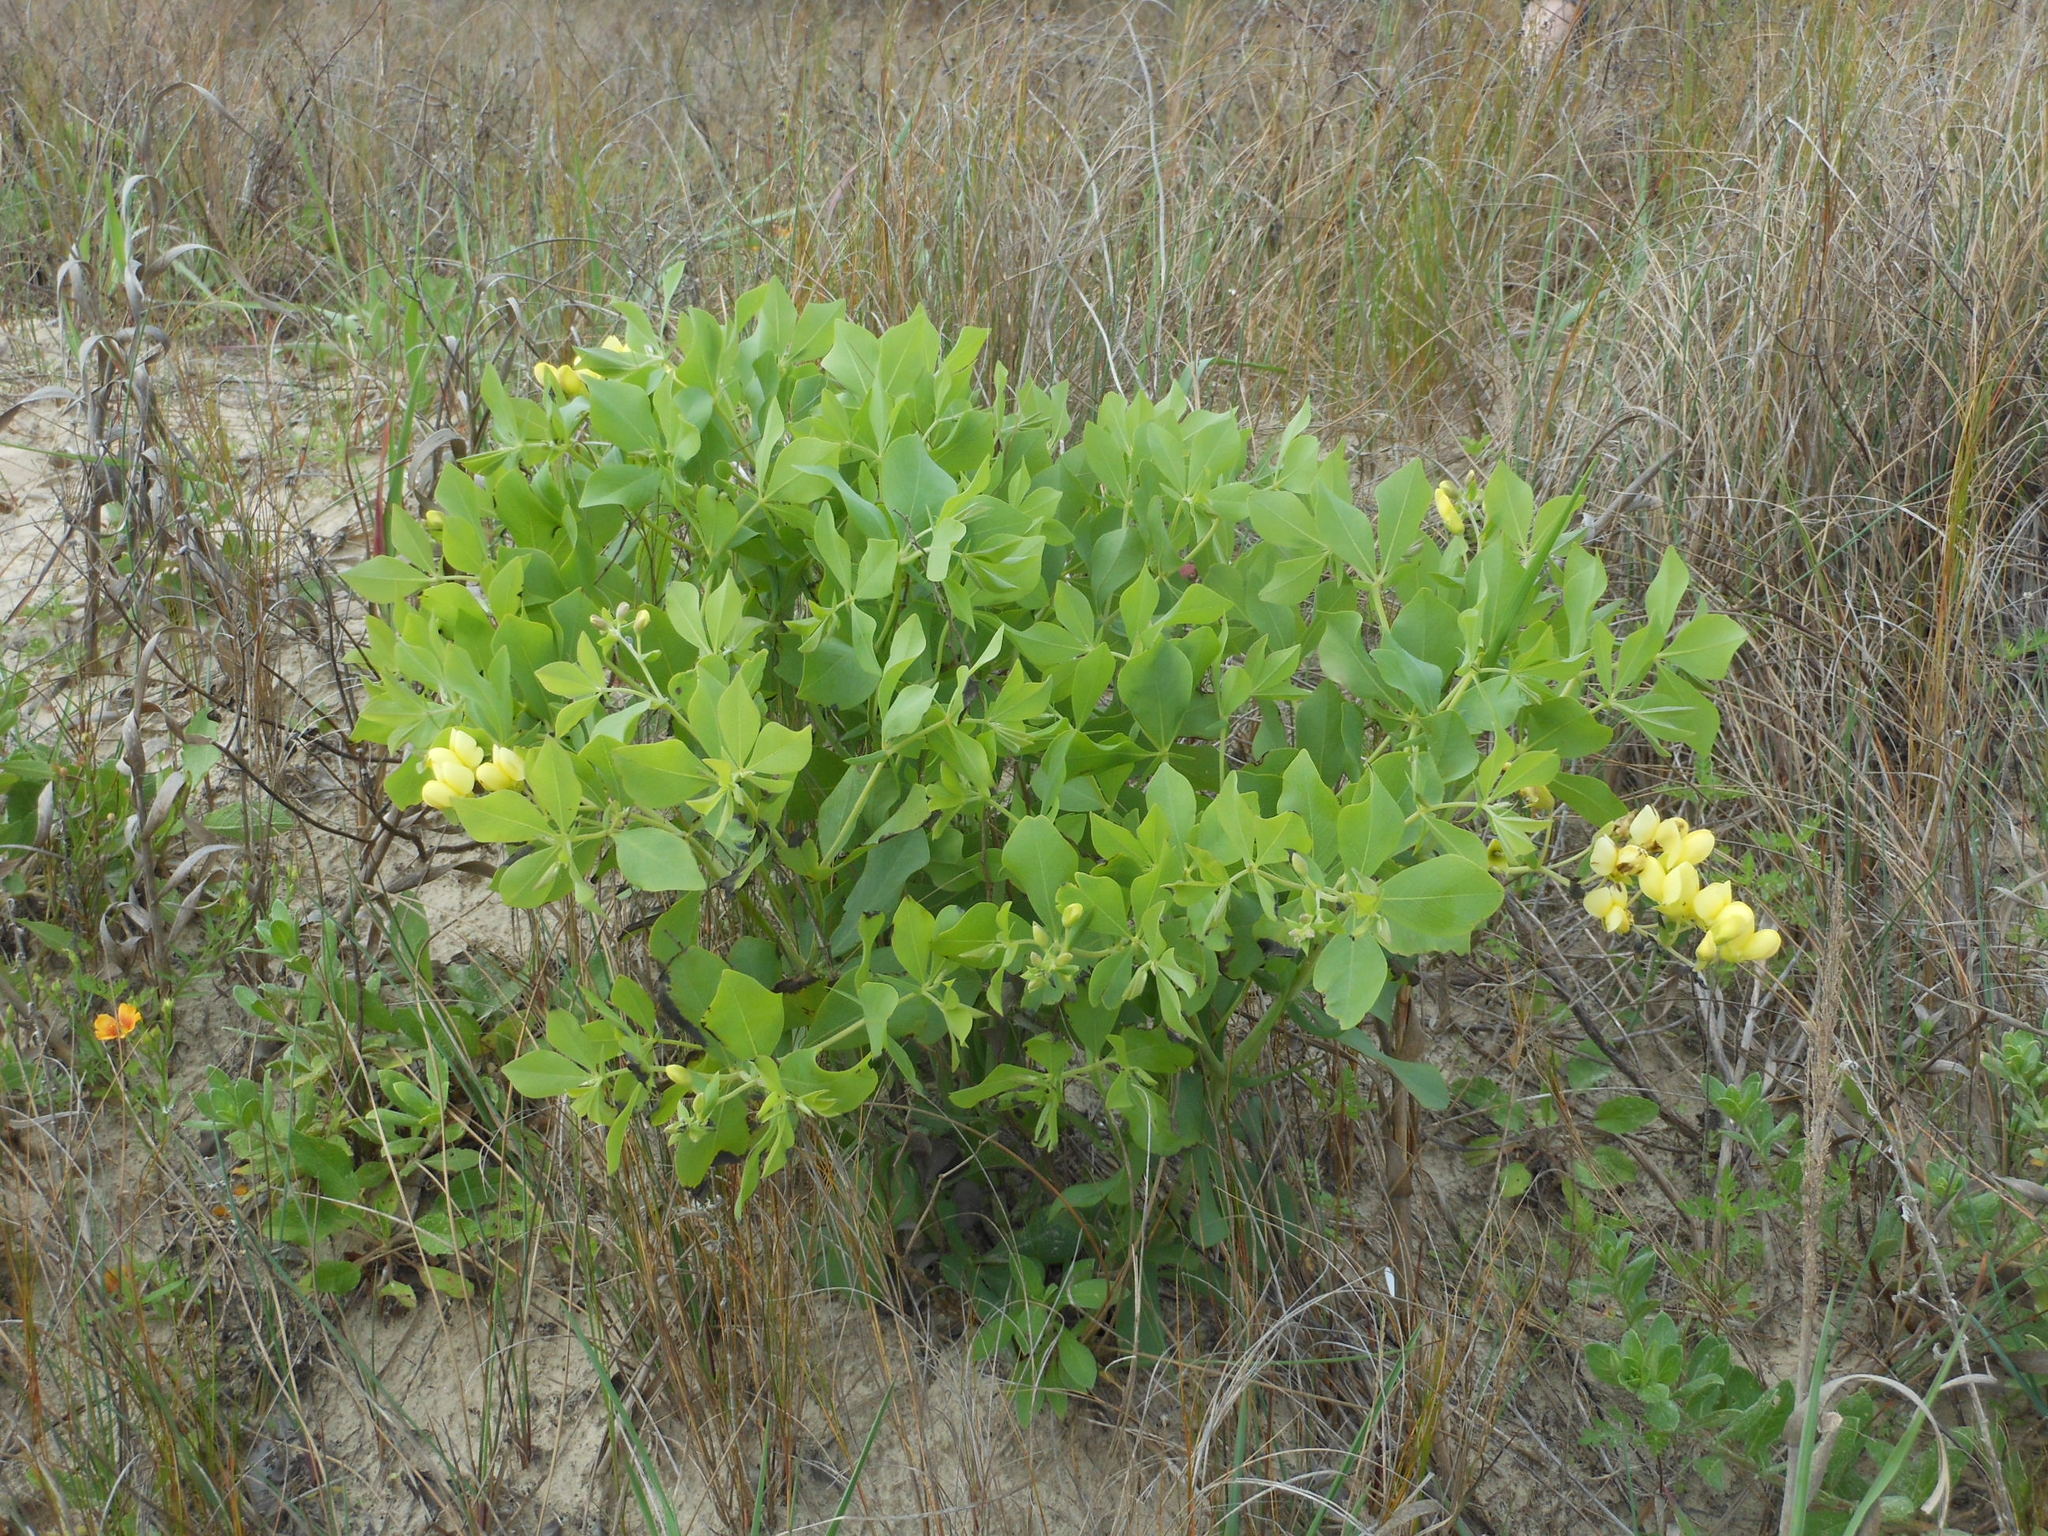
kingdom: Plantae
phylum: Tracheophyta
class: Magnoliopsida
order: Fabales
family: Fabaceae
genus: Baptisia
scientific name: Baptisia bracteata
